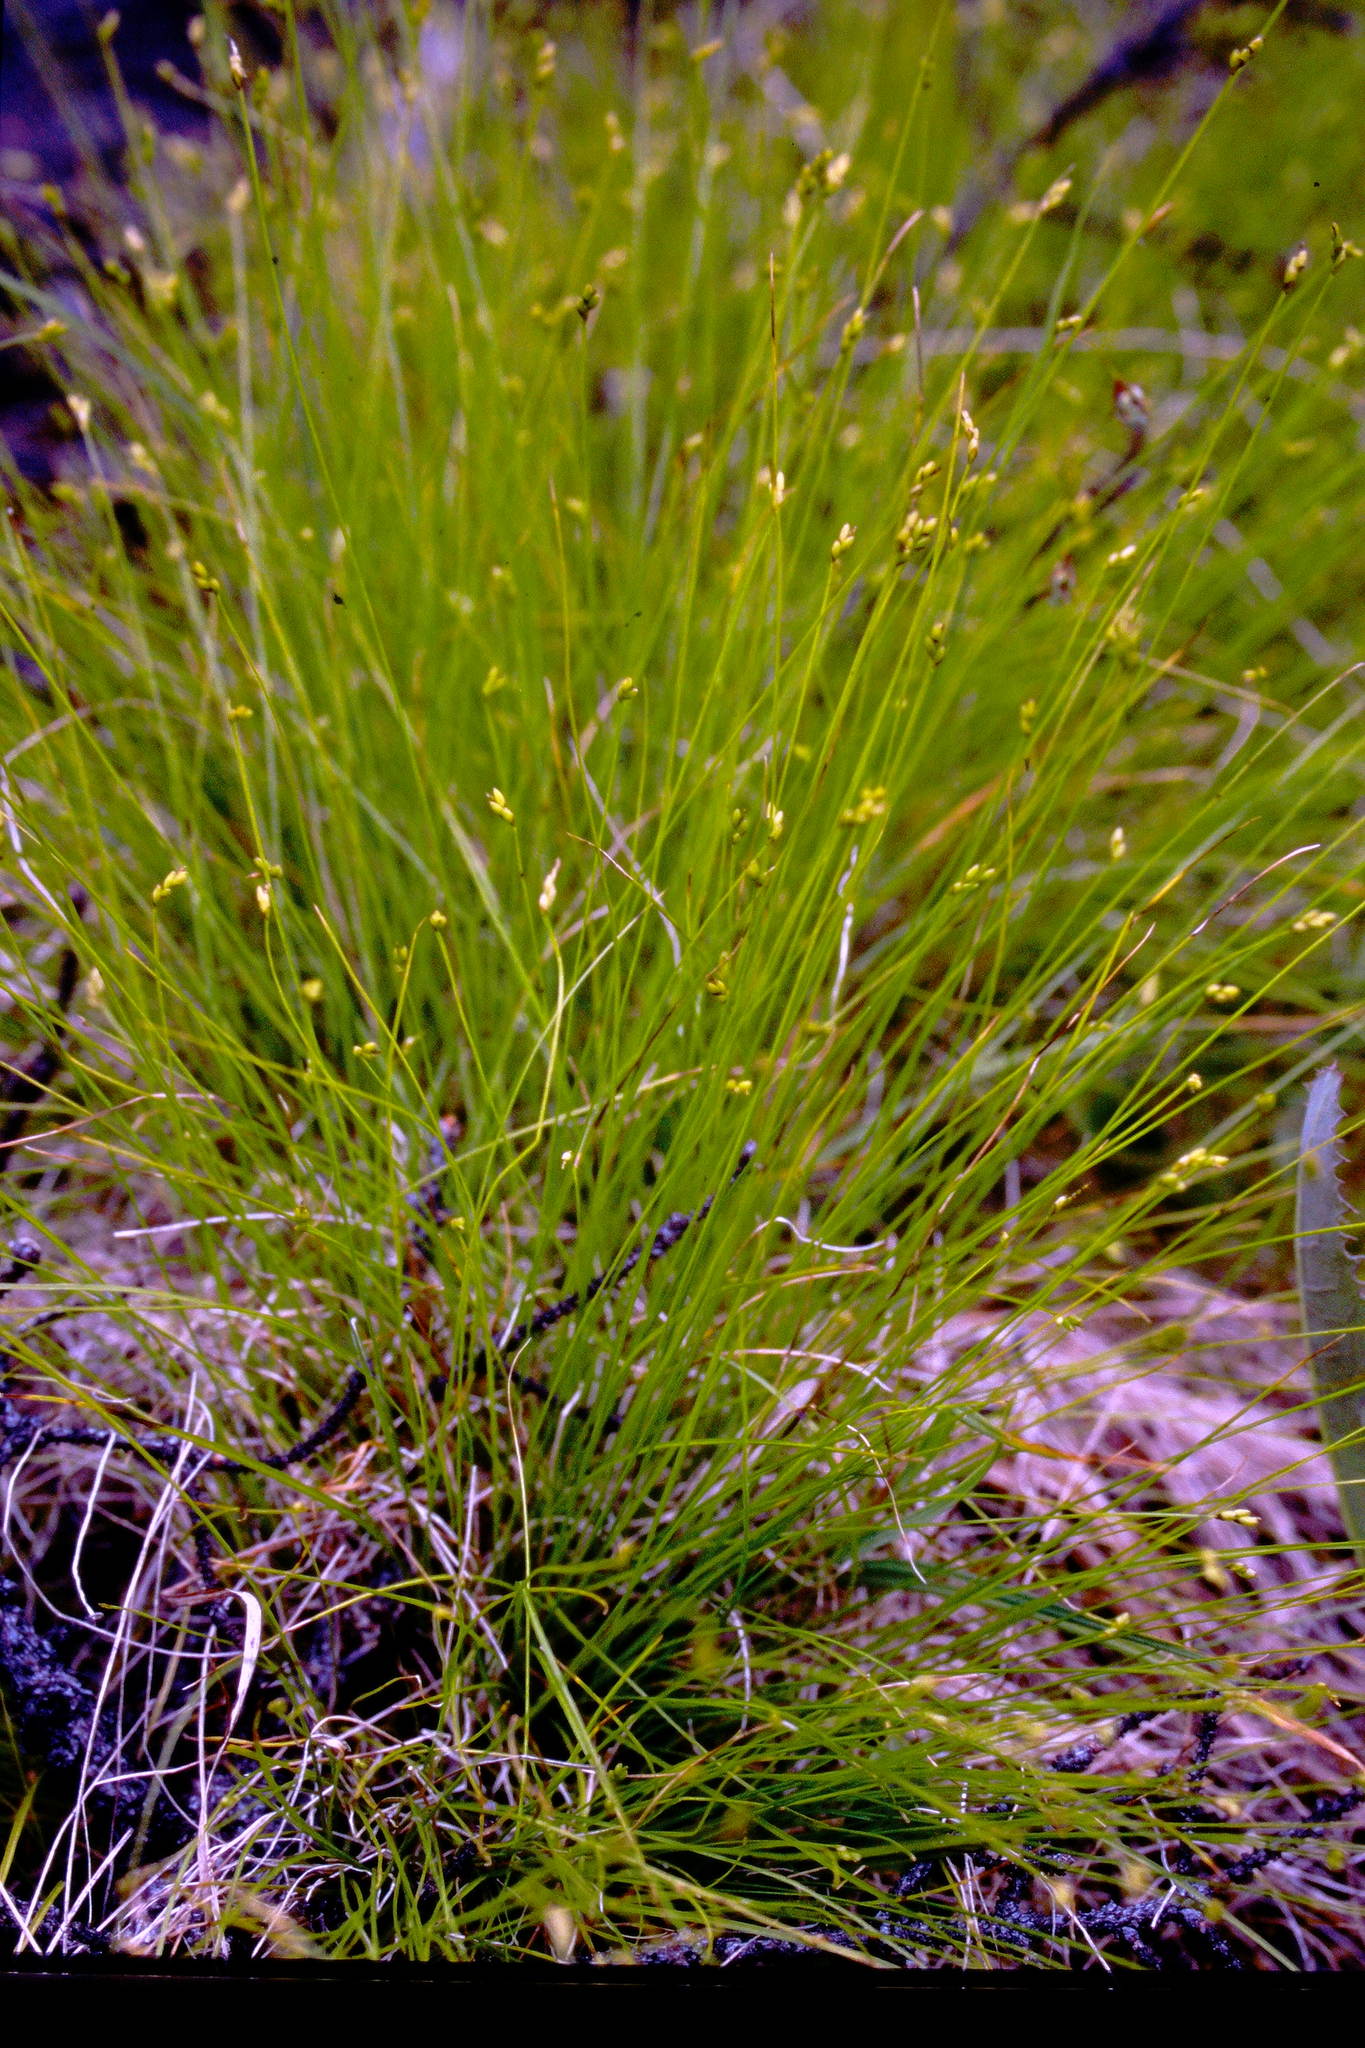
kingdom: Plantae
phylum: Tracheophyta
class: Liliopsida
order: Poales
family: Cyperaceae
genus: Carex
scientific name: Carex leptalea
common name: Bristly-stalked sedge
